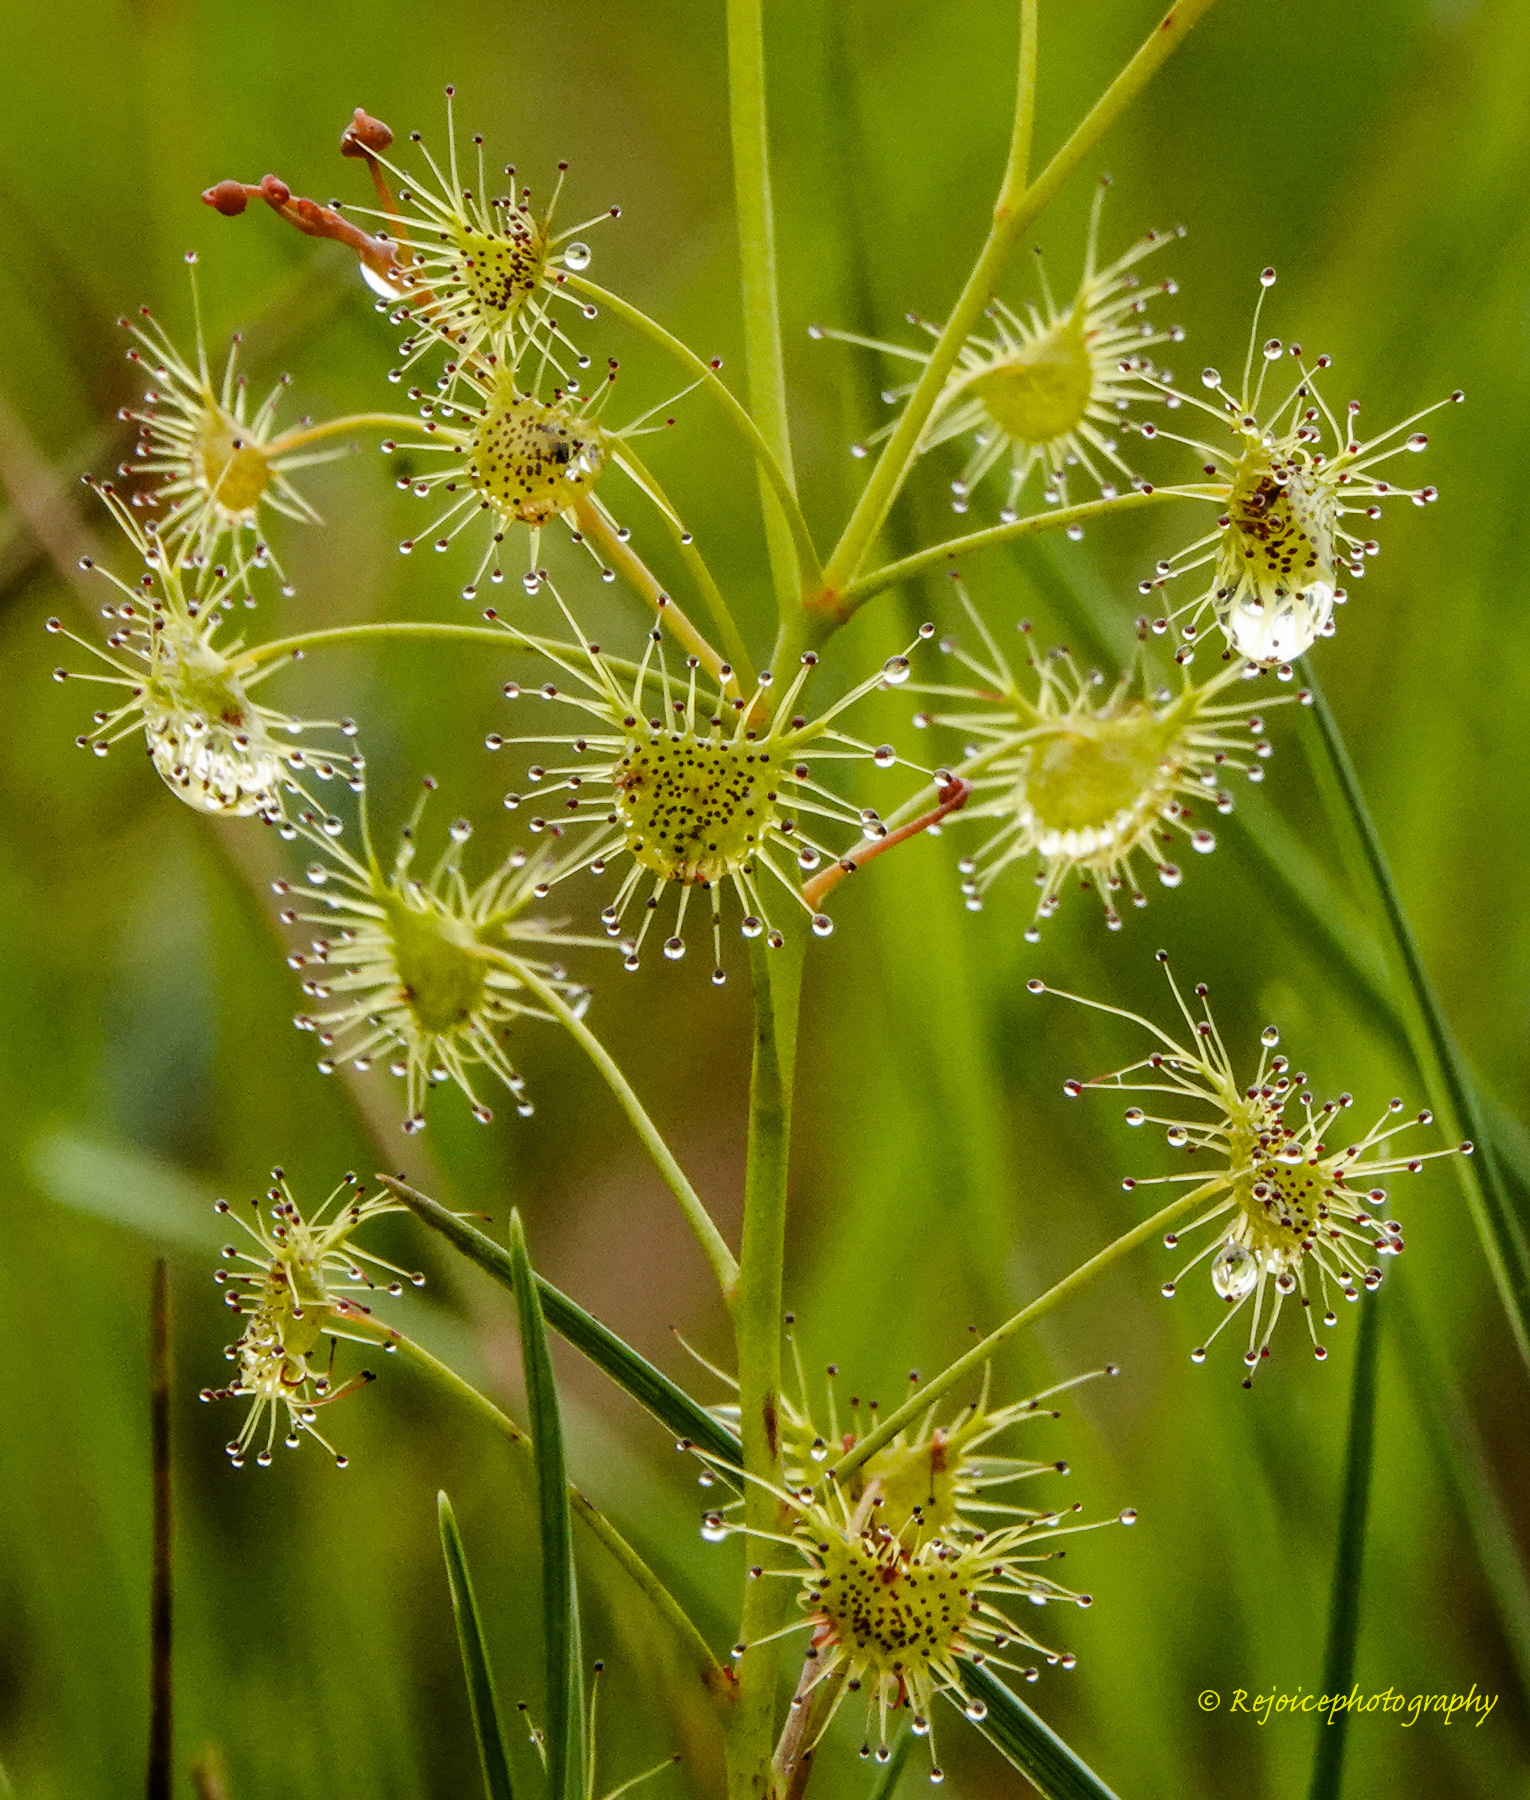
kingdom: Plantae
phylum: Tracheophyta
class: Magnoliopsida
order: Caryophyllales
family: Droseraceae
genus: Drosera
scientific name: Drosera peltata
